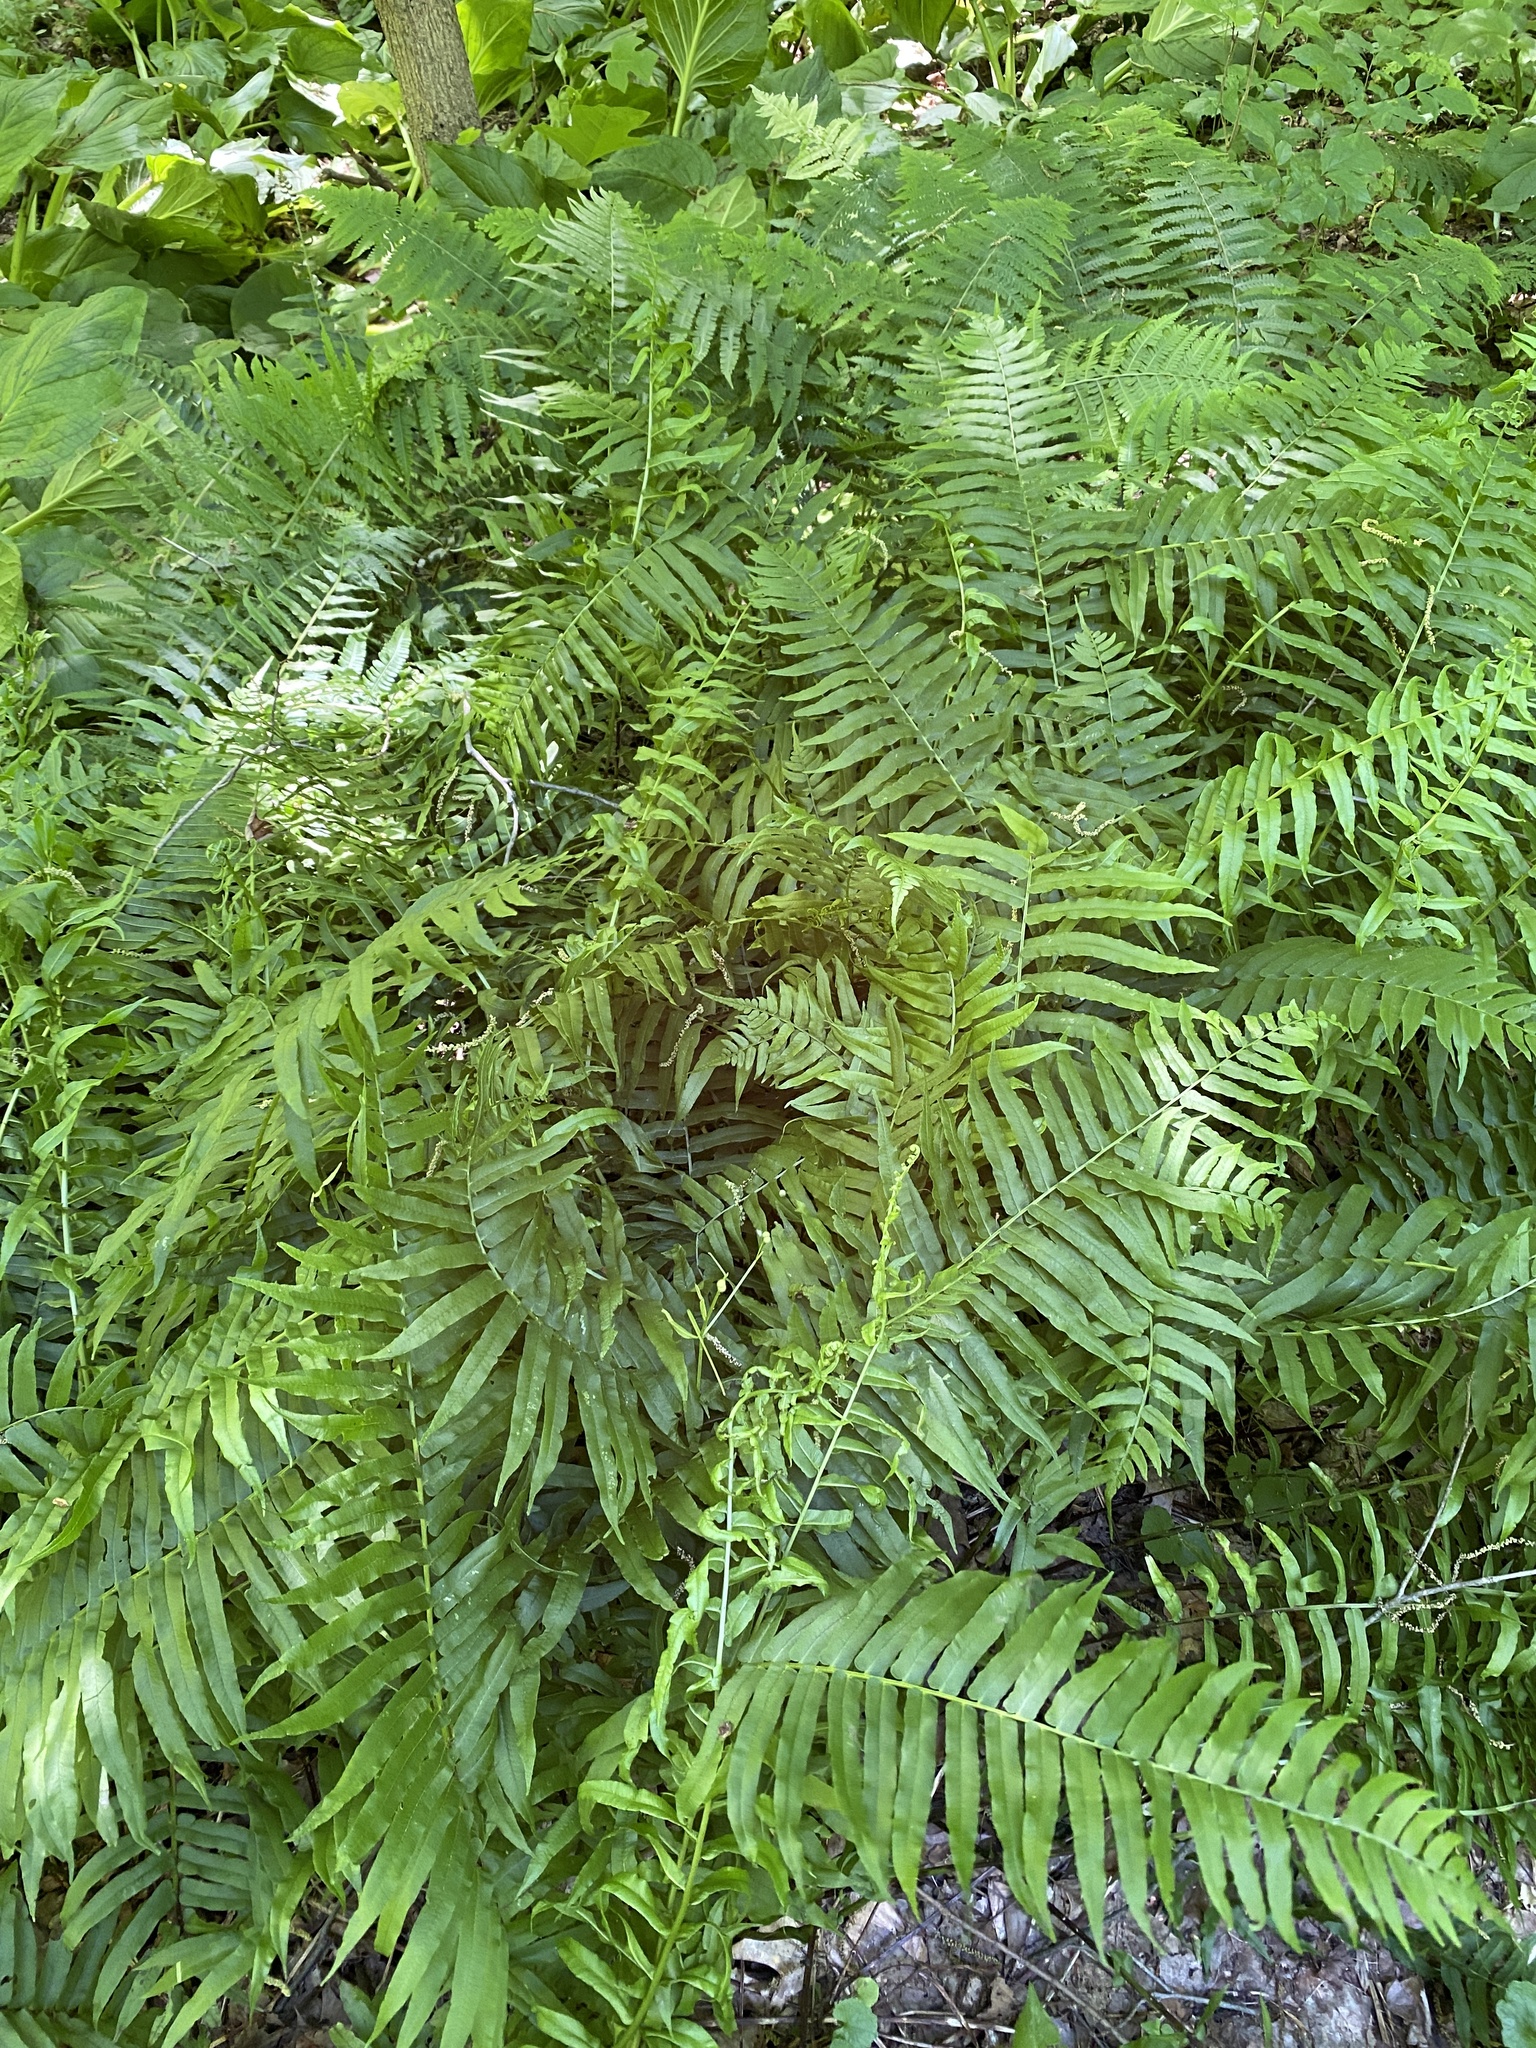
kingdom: Plantae
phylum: Tracheophyta
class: Polypodiopsida
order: Polypodiales
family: Diplaziopsidaceae
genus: Homalosorus
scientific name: Homalosorus pycnocarpos
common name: Glade fern
